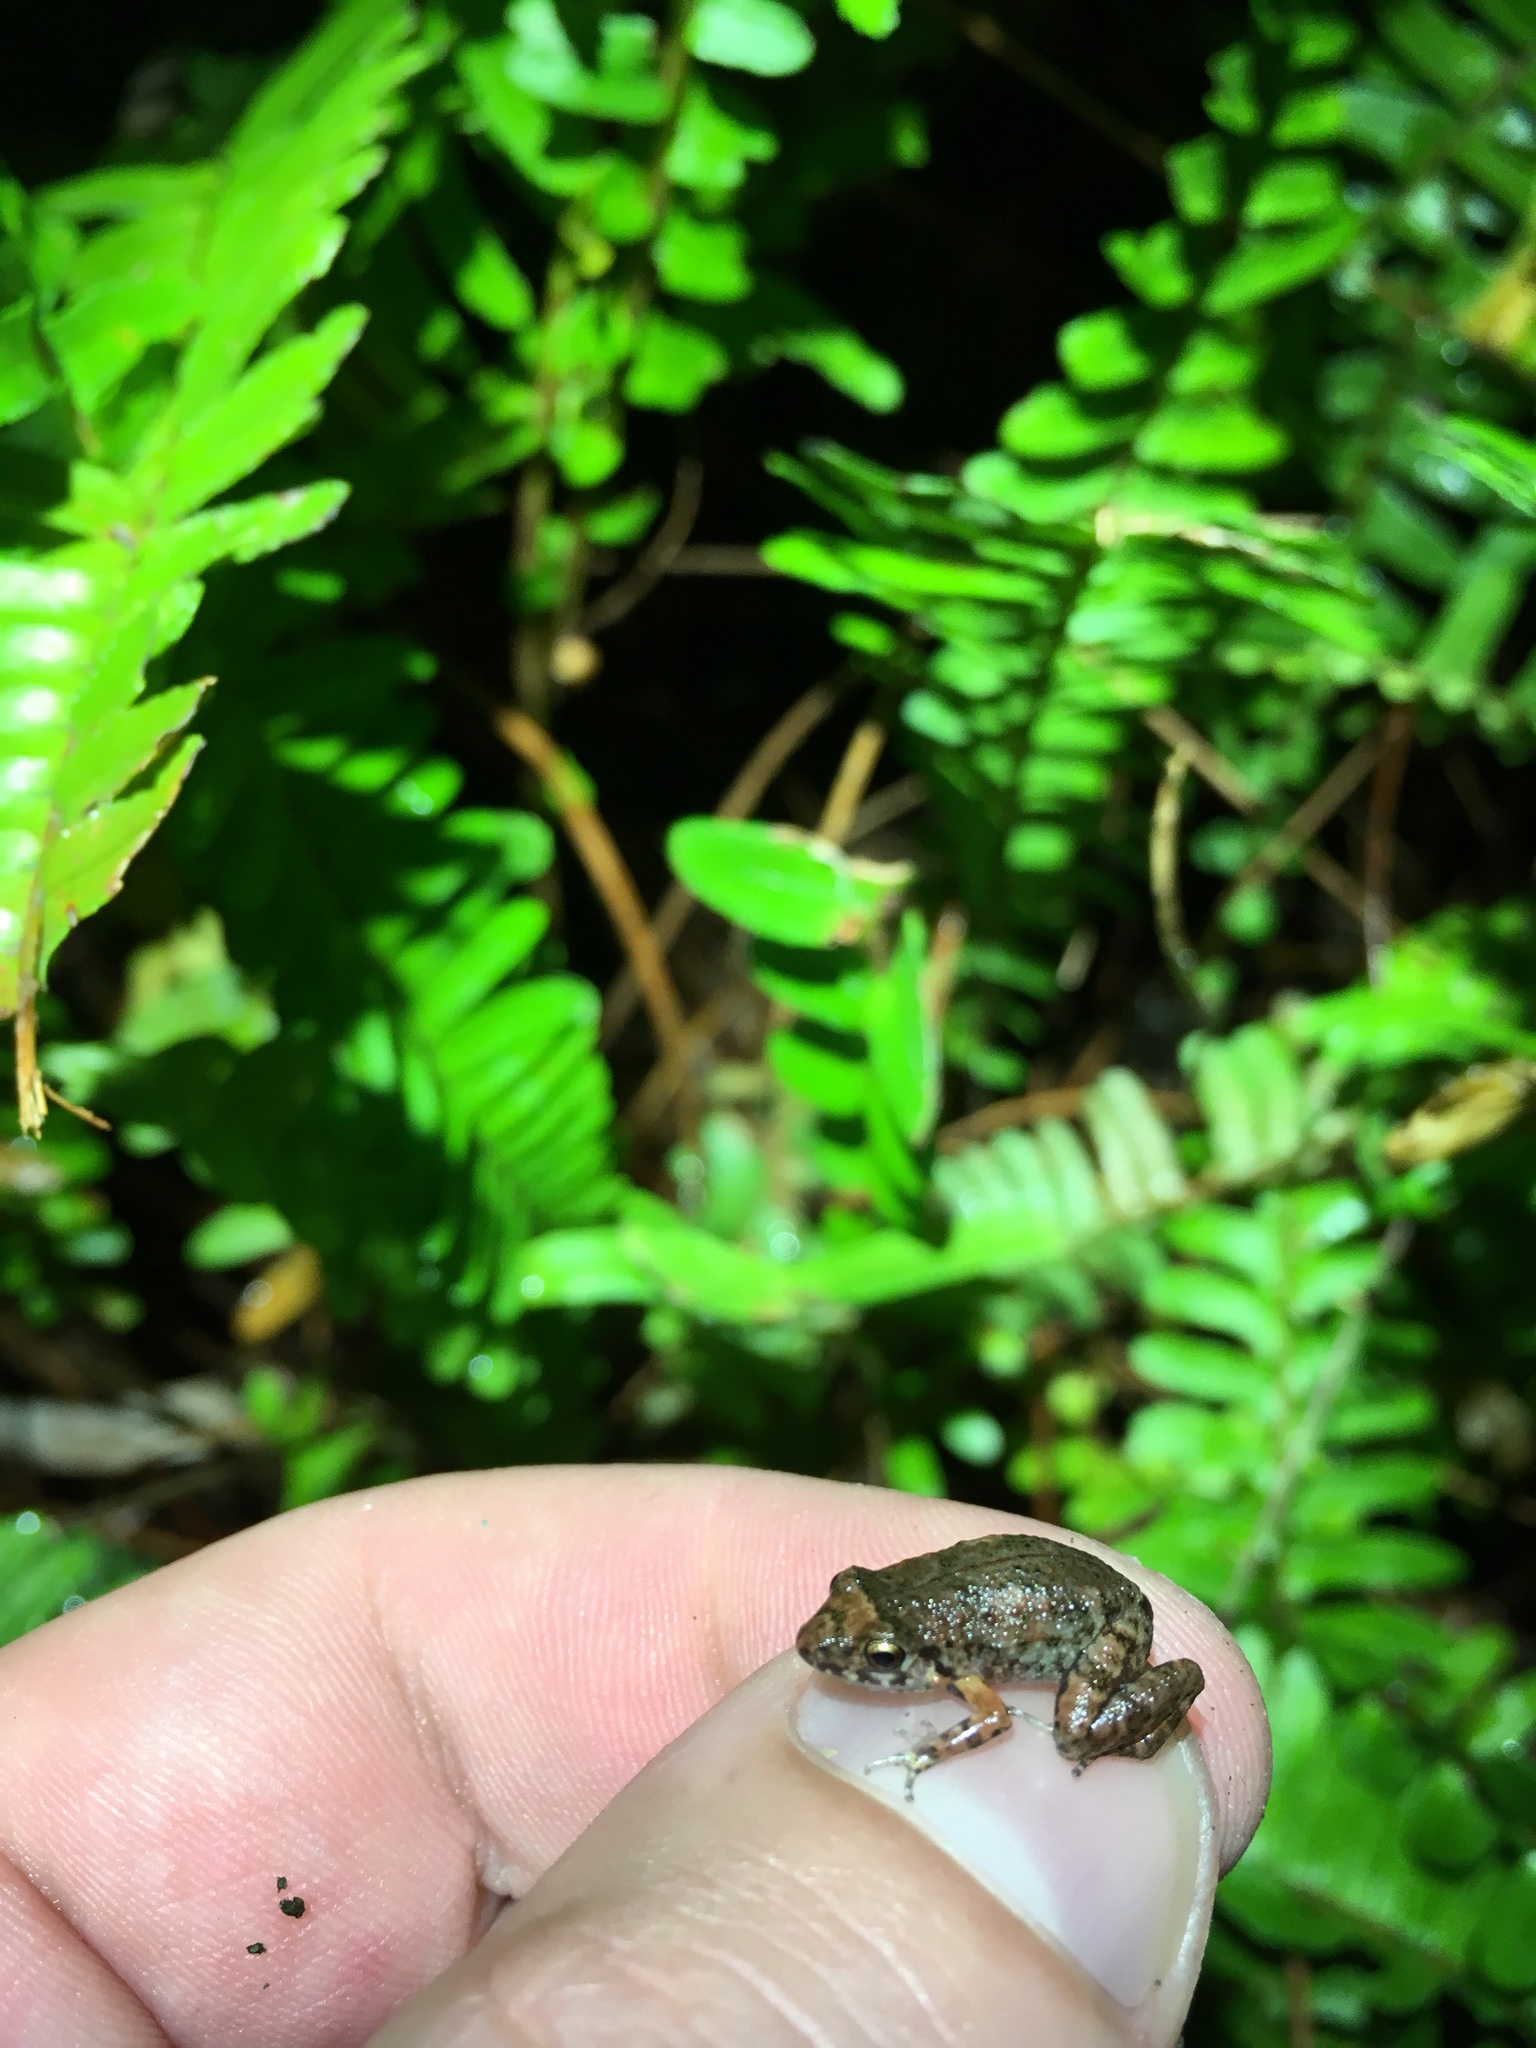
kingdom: Animalia
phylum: Chordata
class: Amphibia
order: Anura
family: Eleutherodactylidae
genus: Eleutherodactylus
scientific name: Eleutherodactylus planirostris
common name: Greenhouse frog
